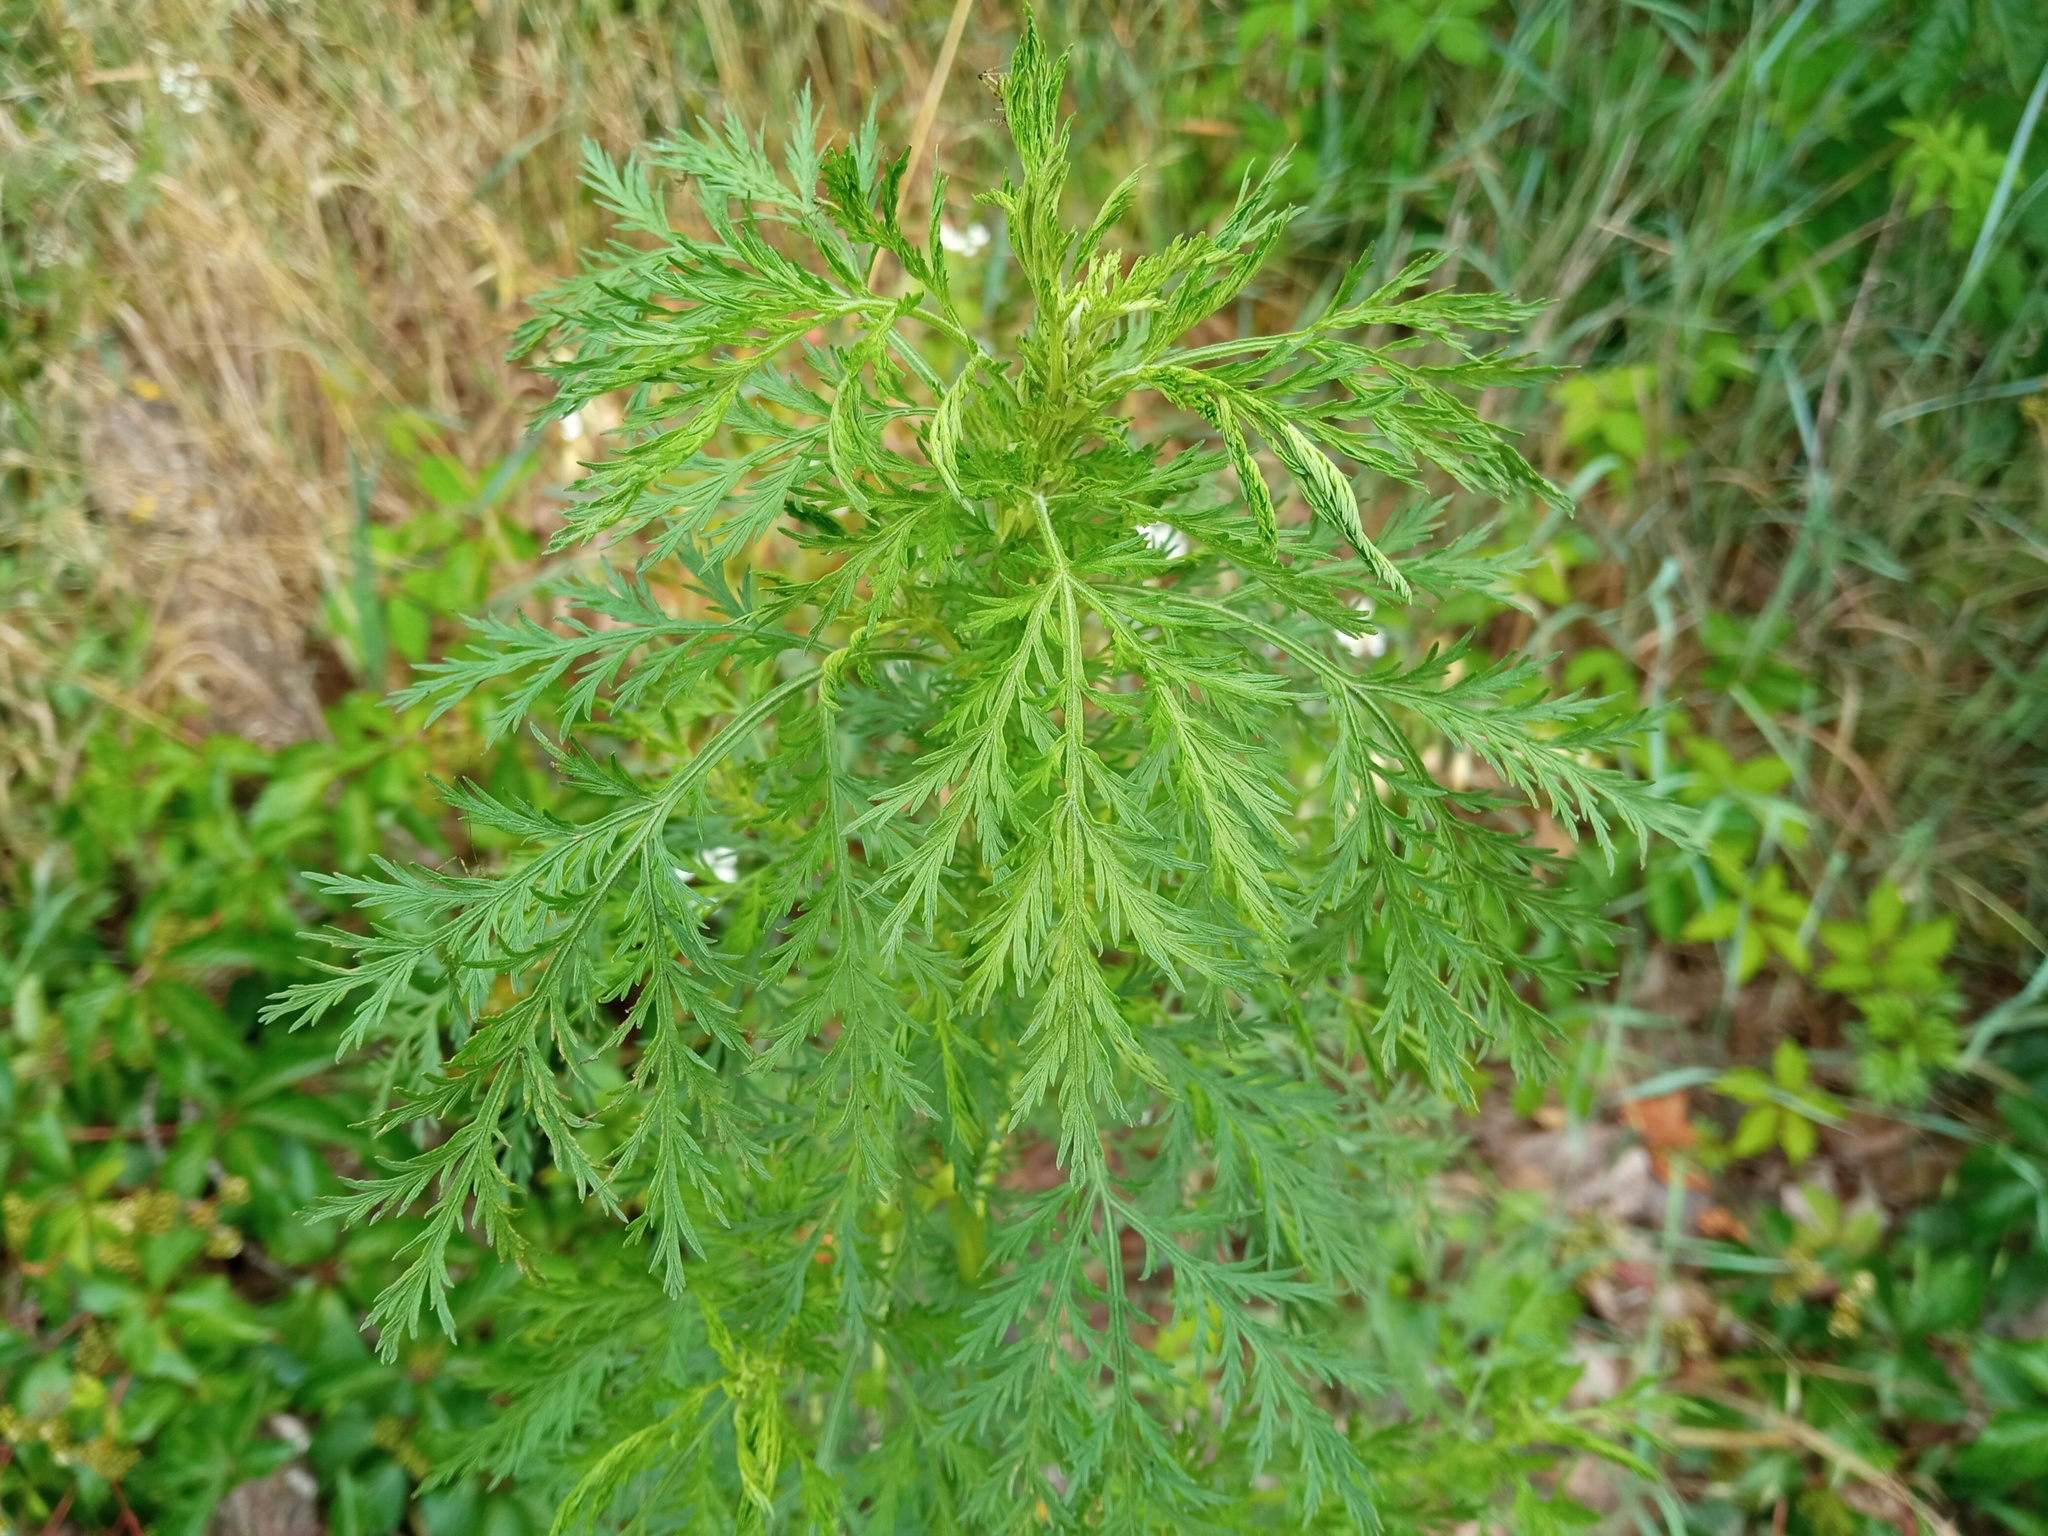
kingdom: Plantae
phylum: Tracheophyta
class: Magnoliopsida
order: Asterales
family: Asteraceae
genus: Artemisia
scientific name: Artemisia annua
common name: Sweet sagewort
